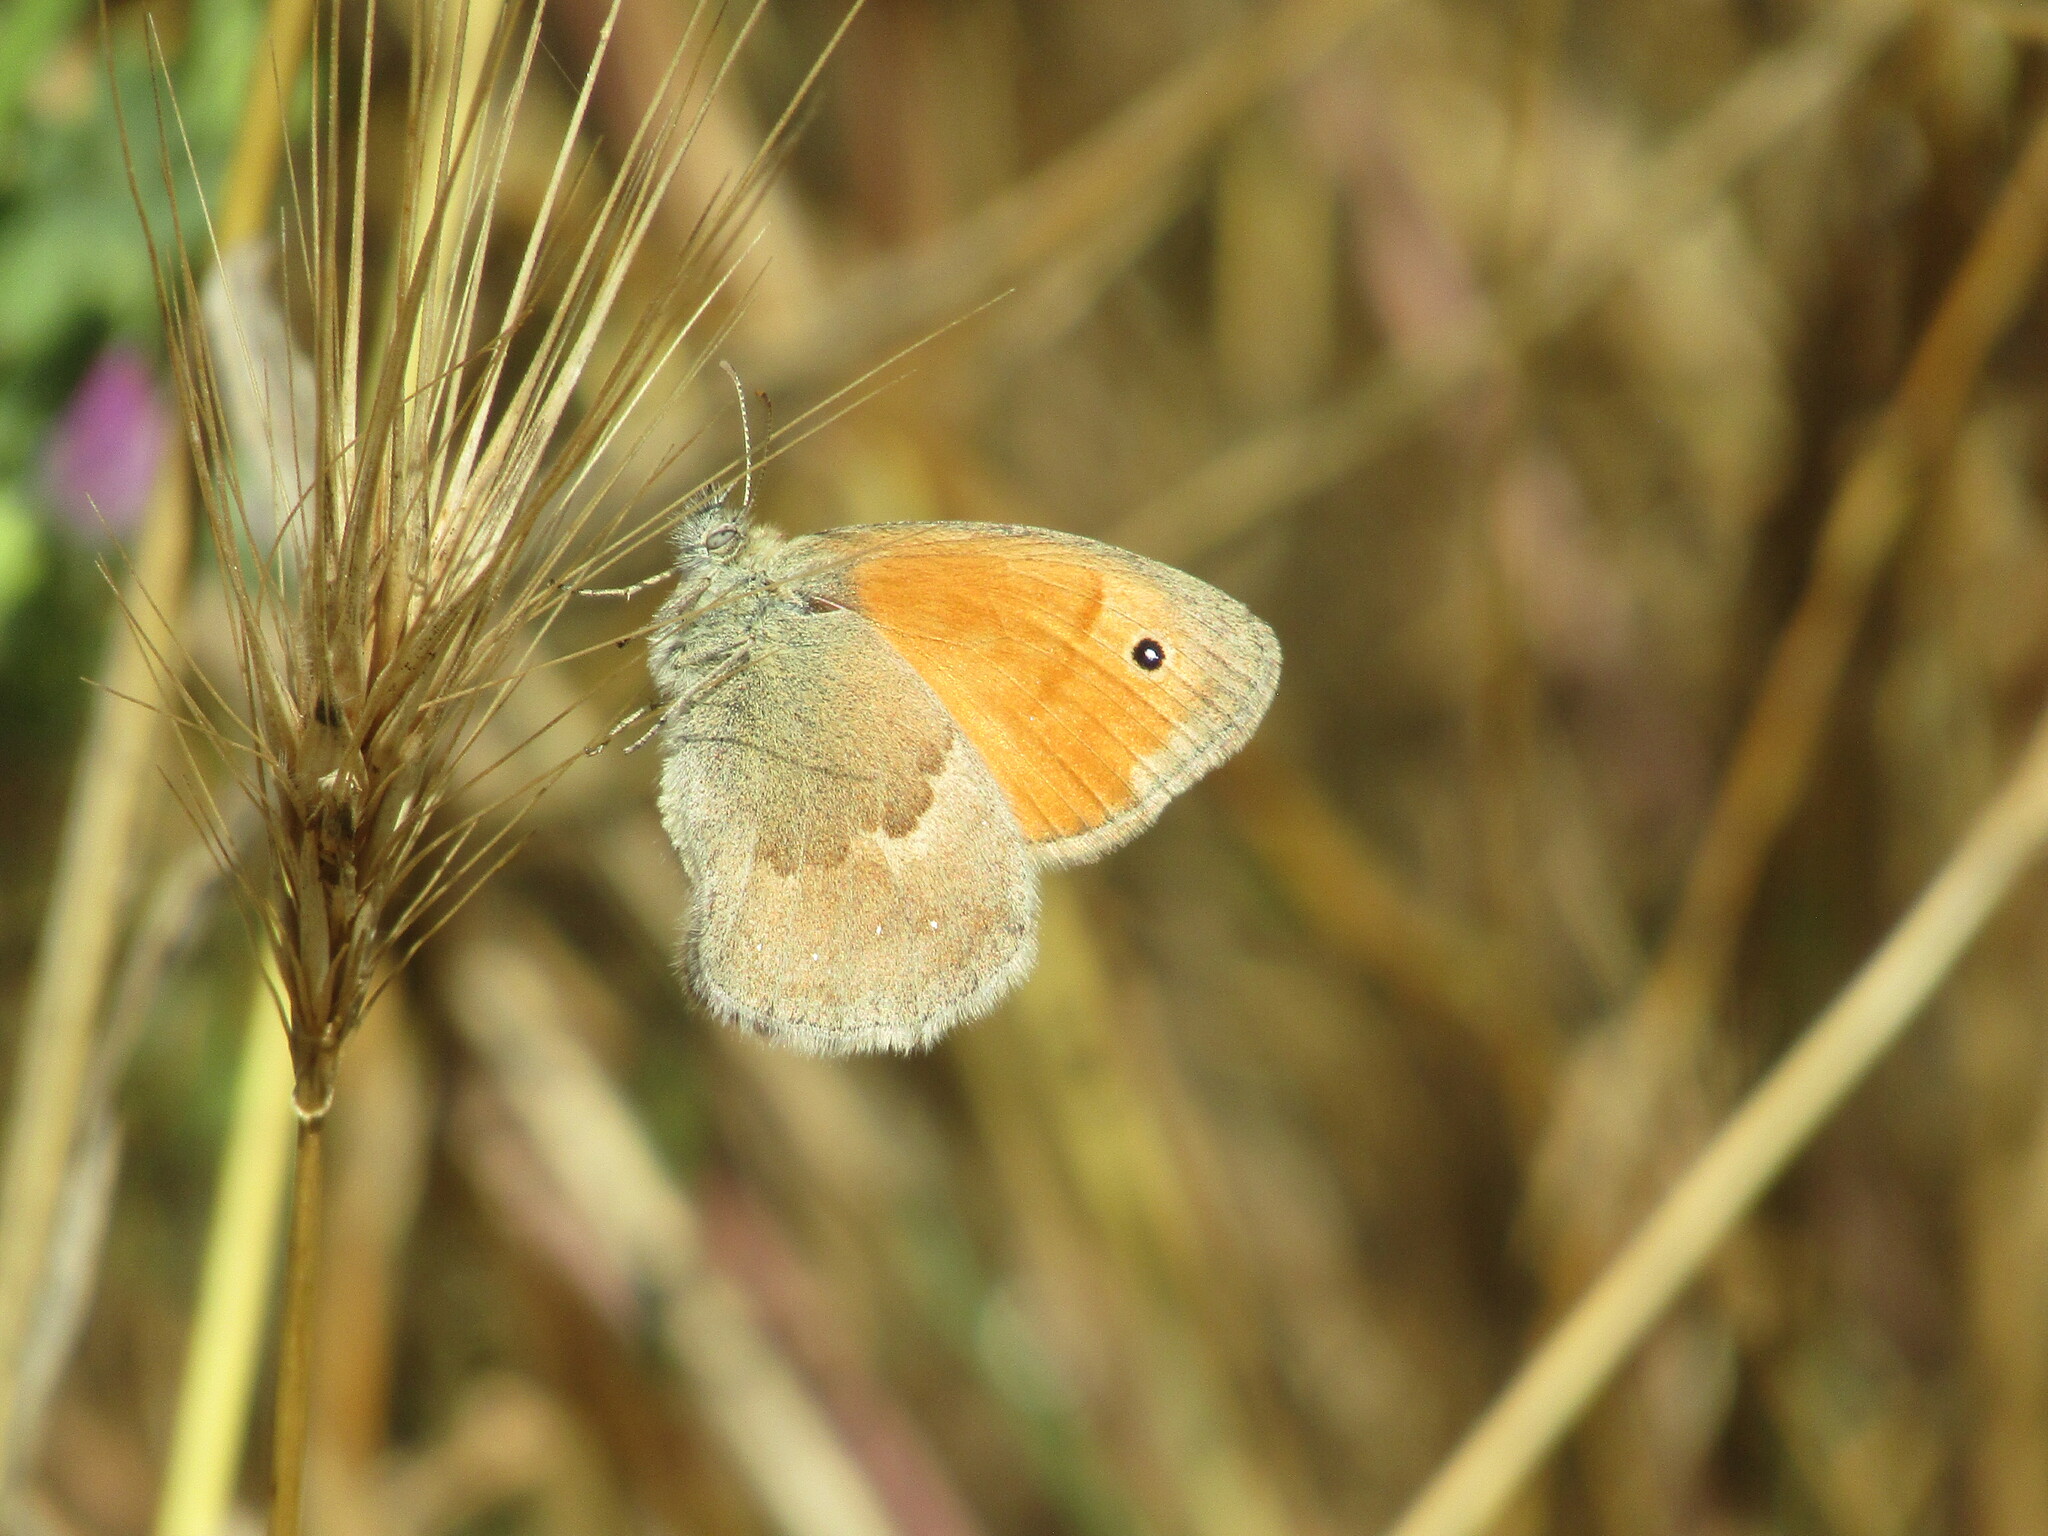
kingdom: Animalia
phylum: Arthropoda
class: Insecta
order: Lepidoptera
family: Nymphalidae
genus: Coenonympha
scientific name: Coenonympha pamphilus
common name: Small heath
